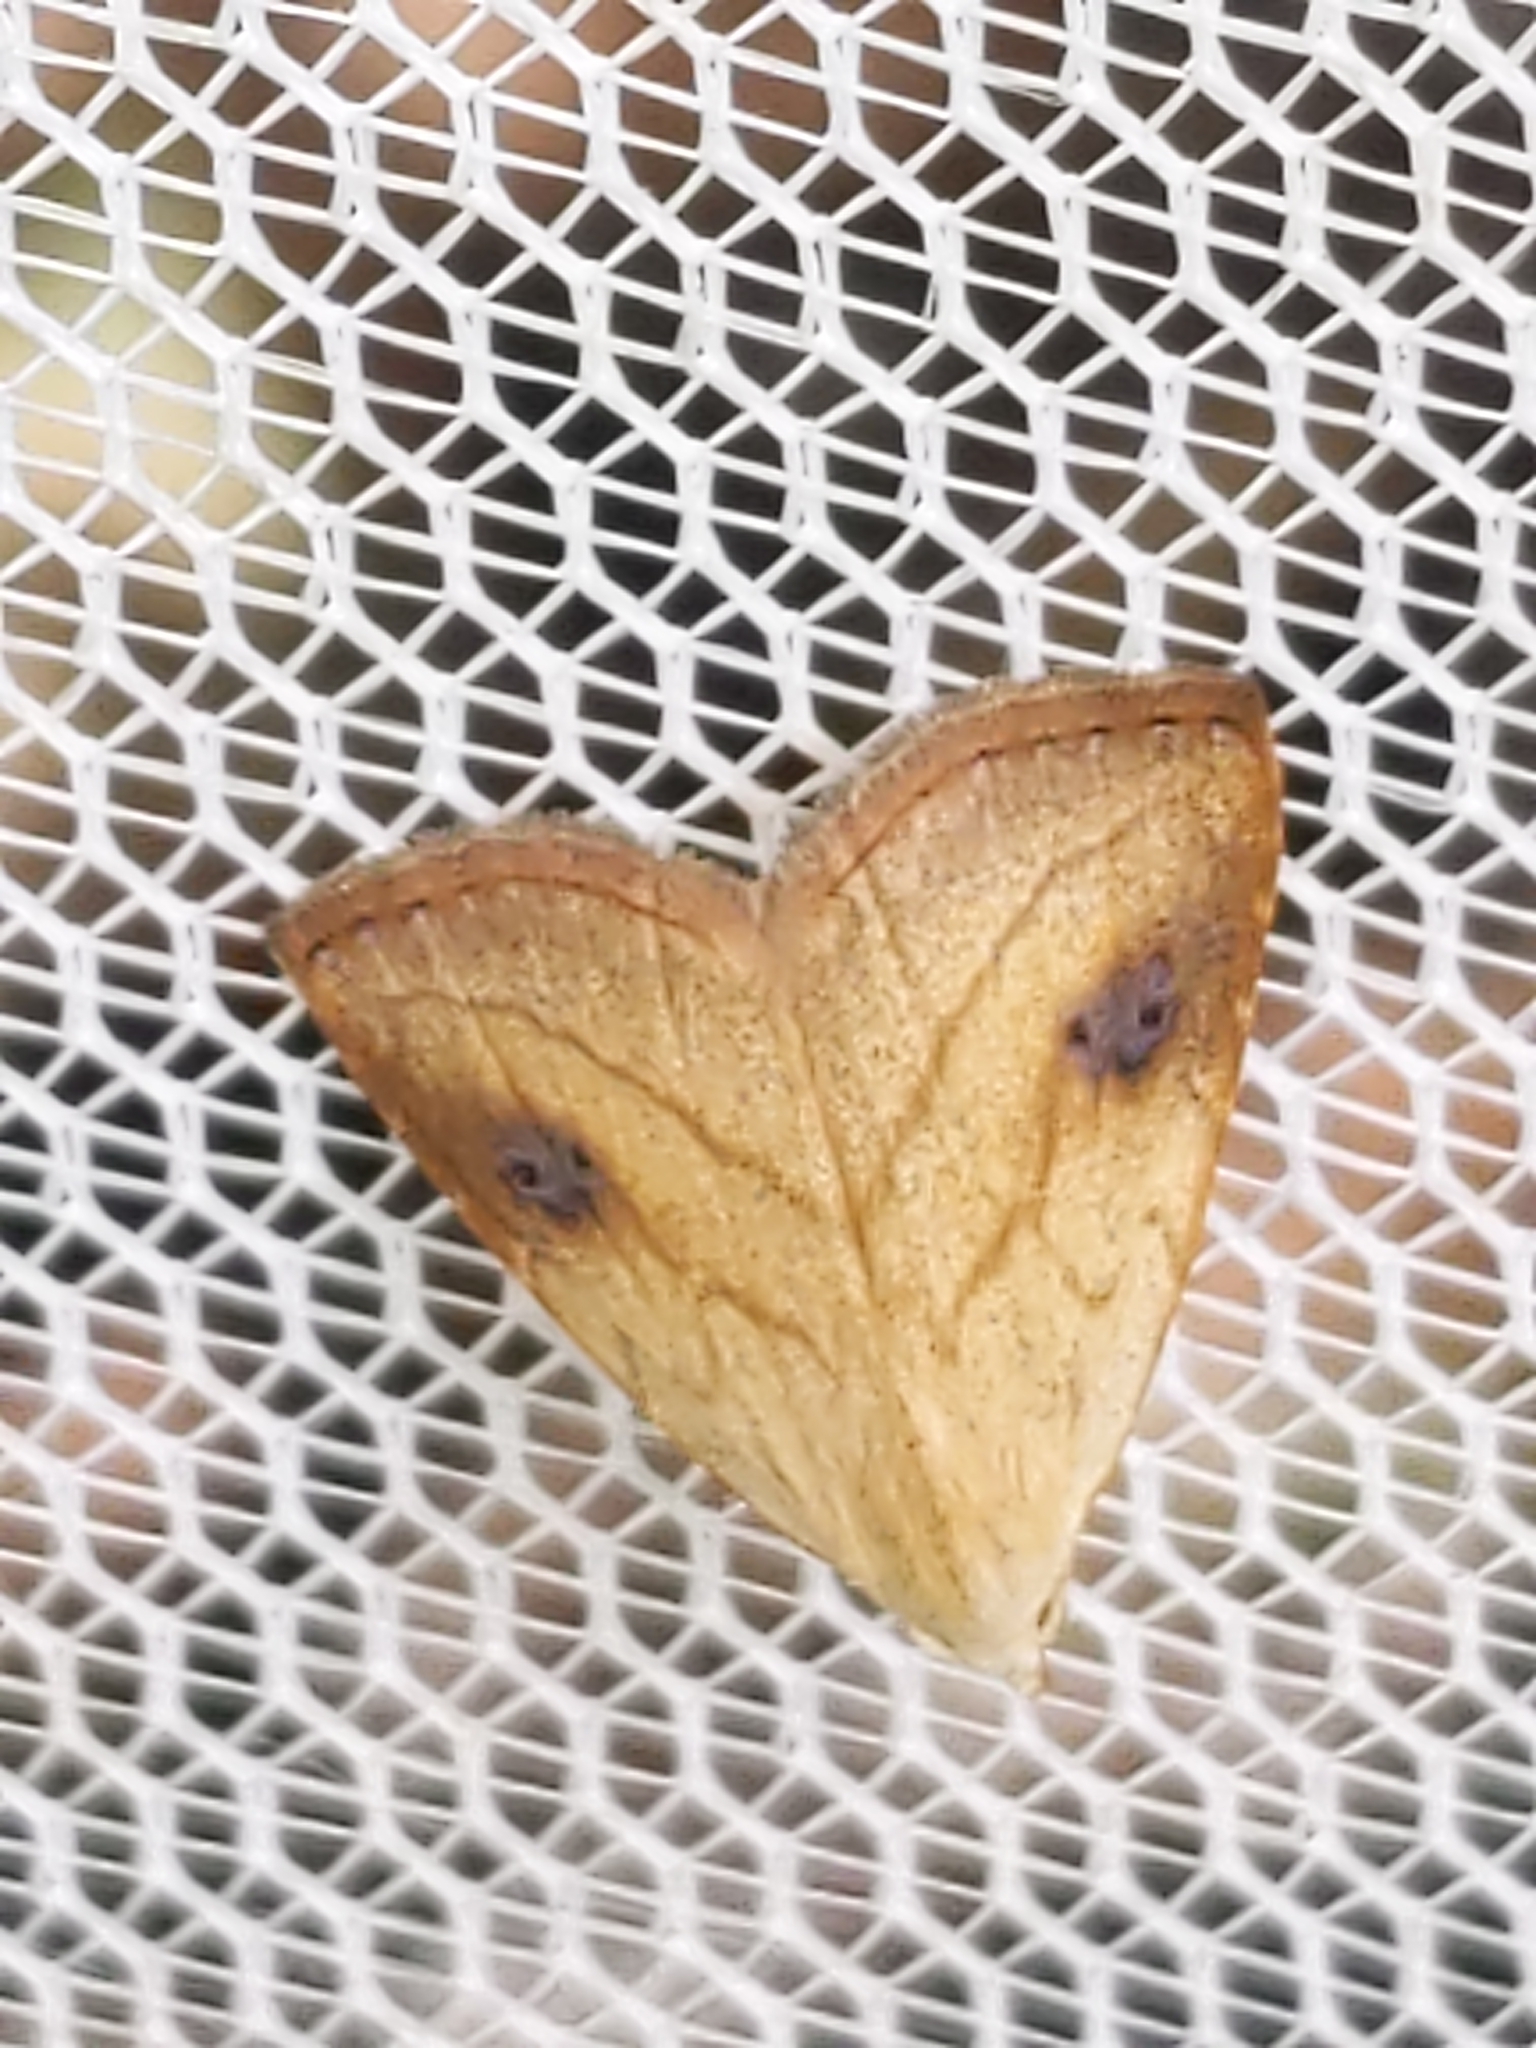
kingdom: Animalia
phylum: Arthropoda
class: Insecta
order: Lepidoptera
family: Erebidae
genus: Rivula
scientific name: Rivula propinqualis
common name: Spotted grass moth
